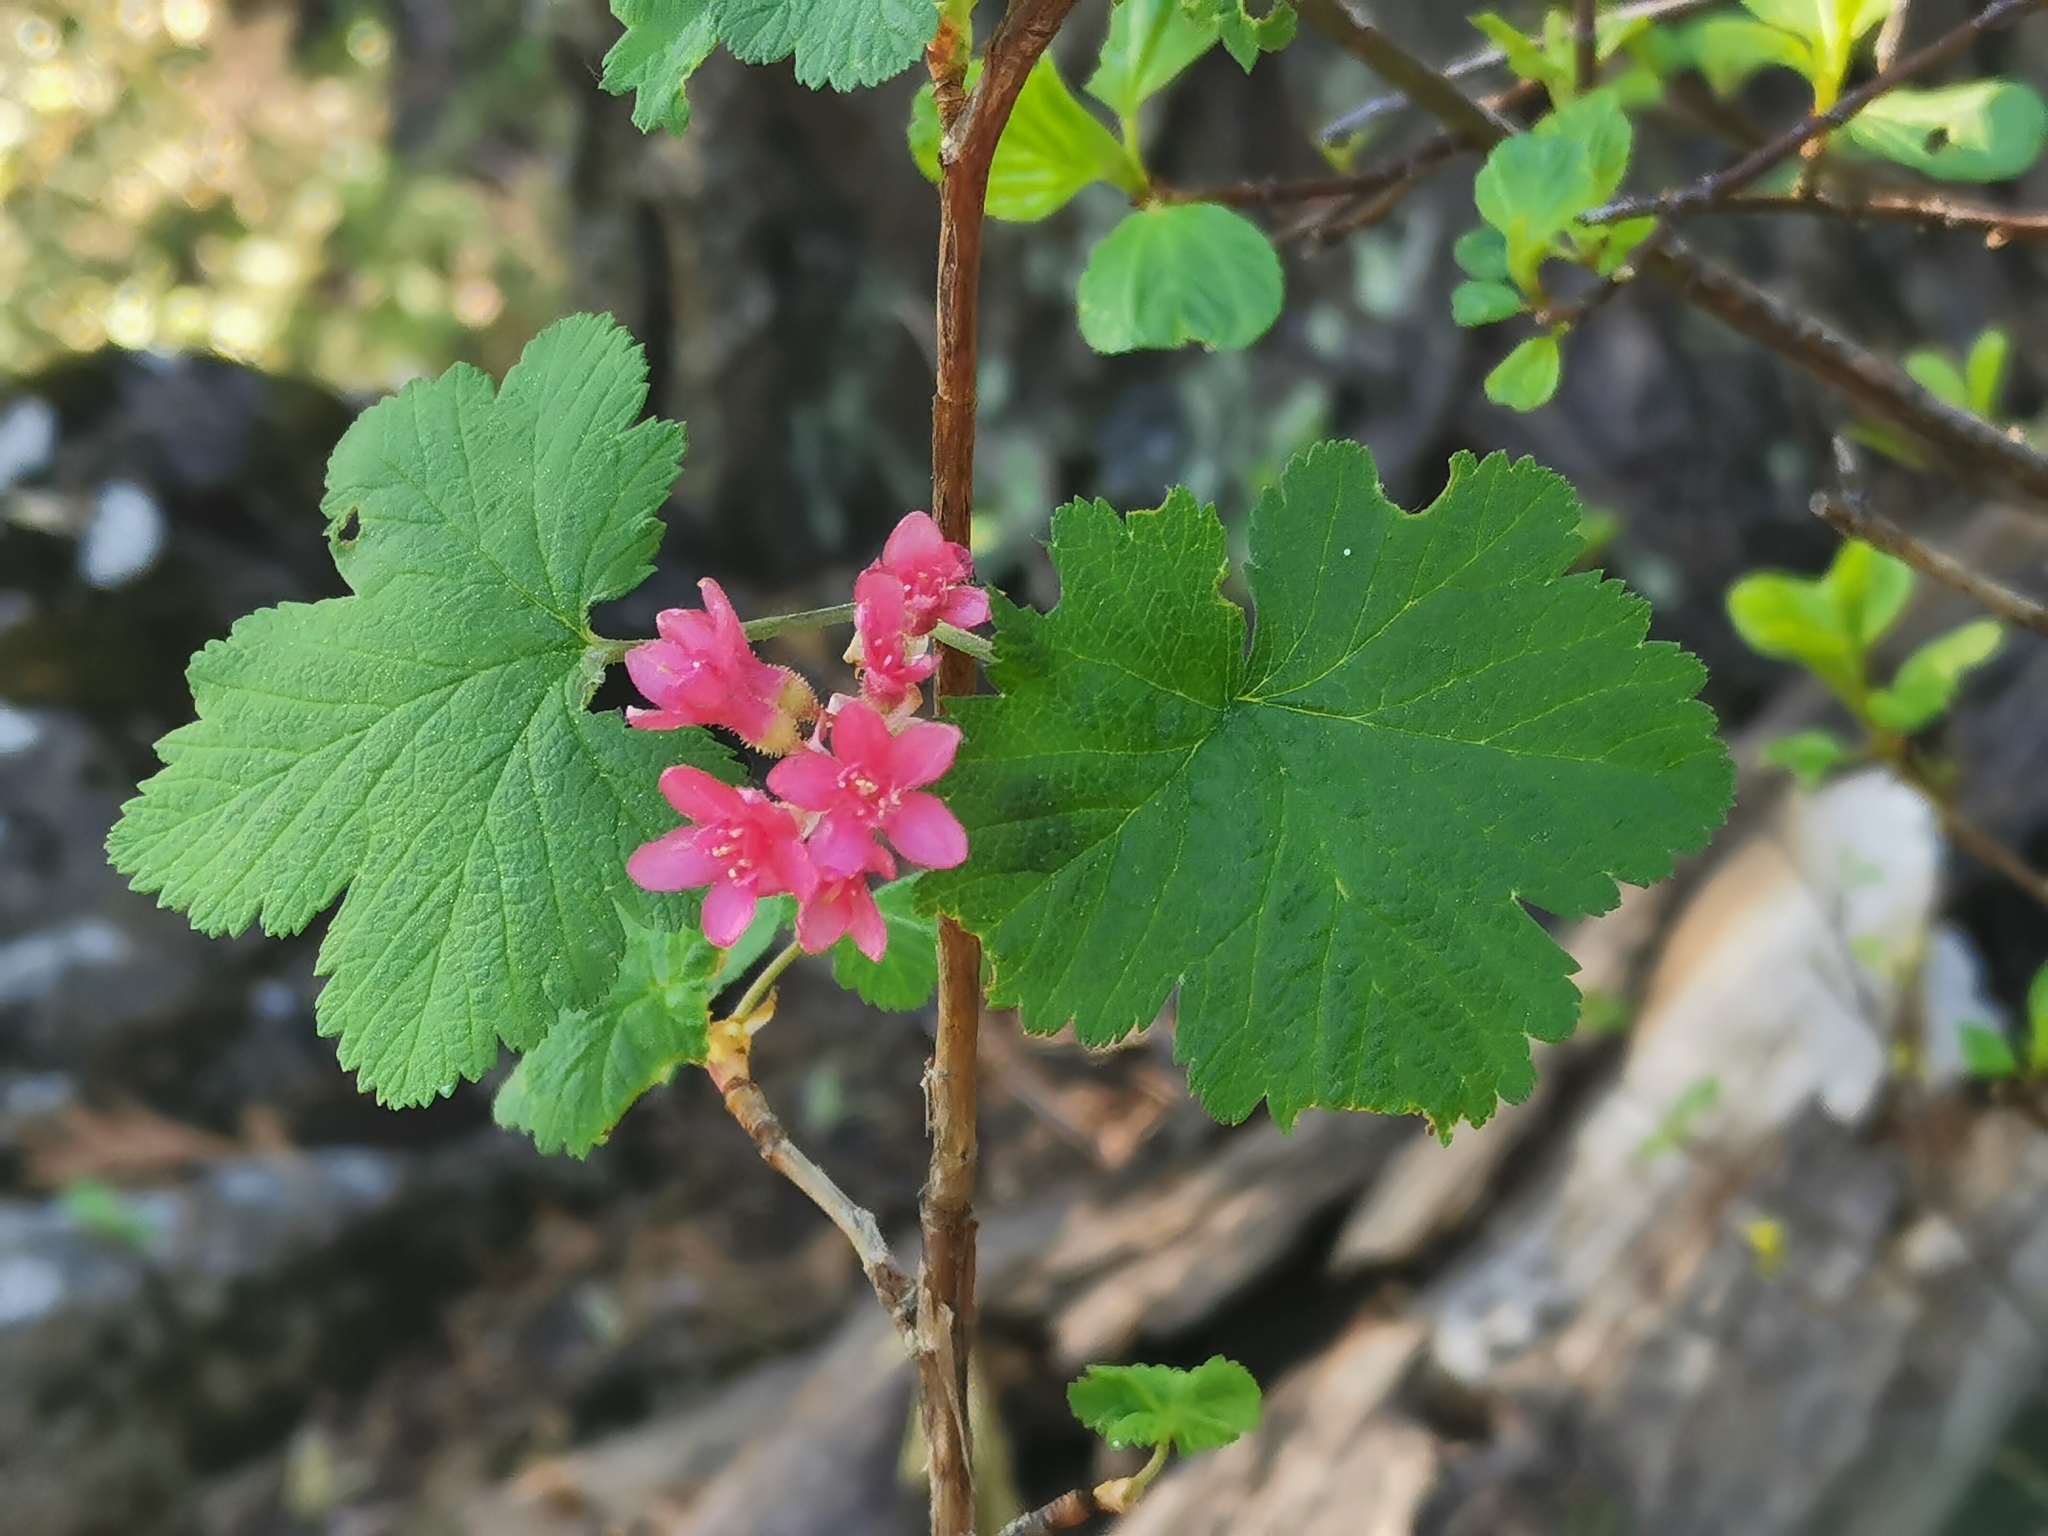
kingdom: Plantae
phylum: Tracheophyta
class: Magnoliopsida
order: Saxifragales
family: Grossulariaceae
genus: Ribes
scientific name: Ribes sanguineum
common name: Flowering currant
